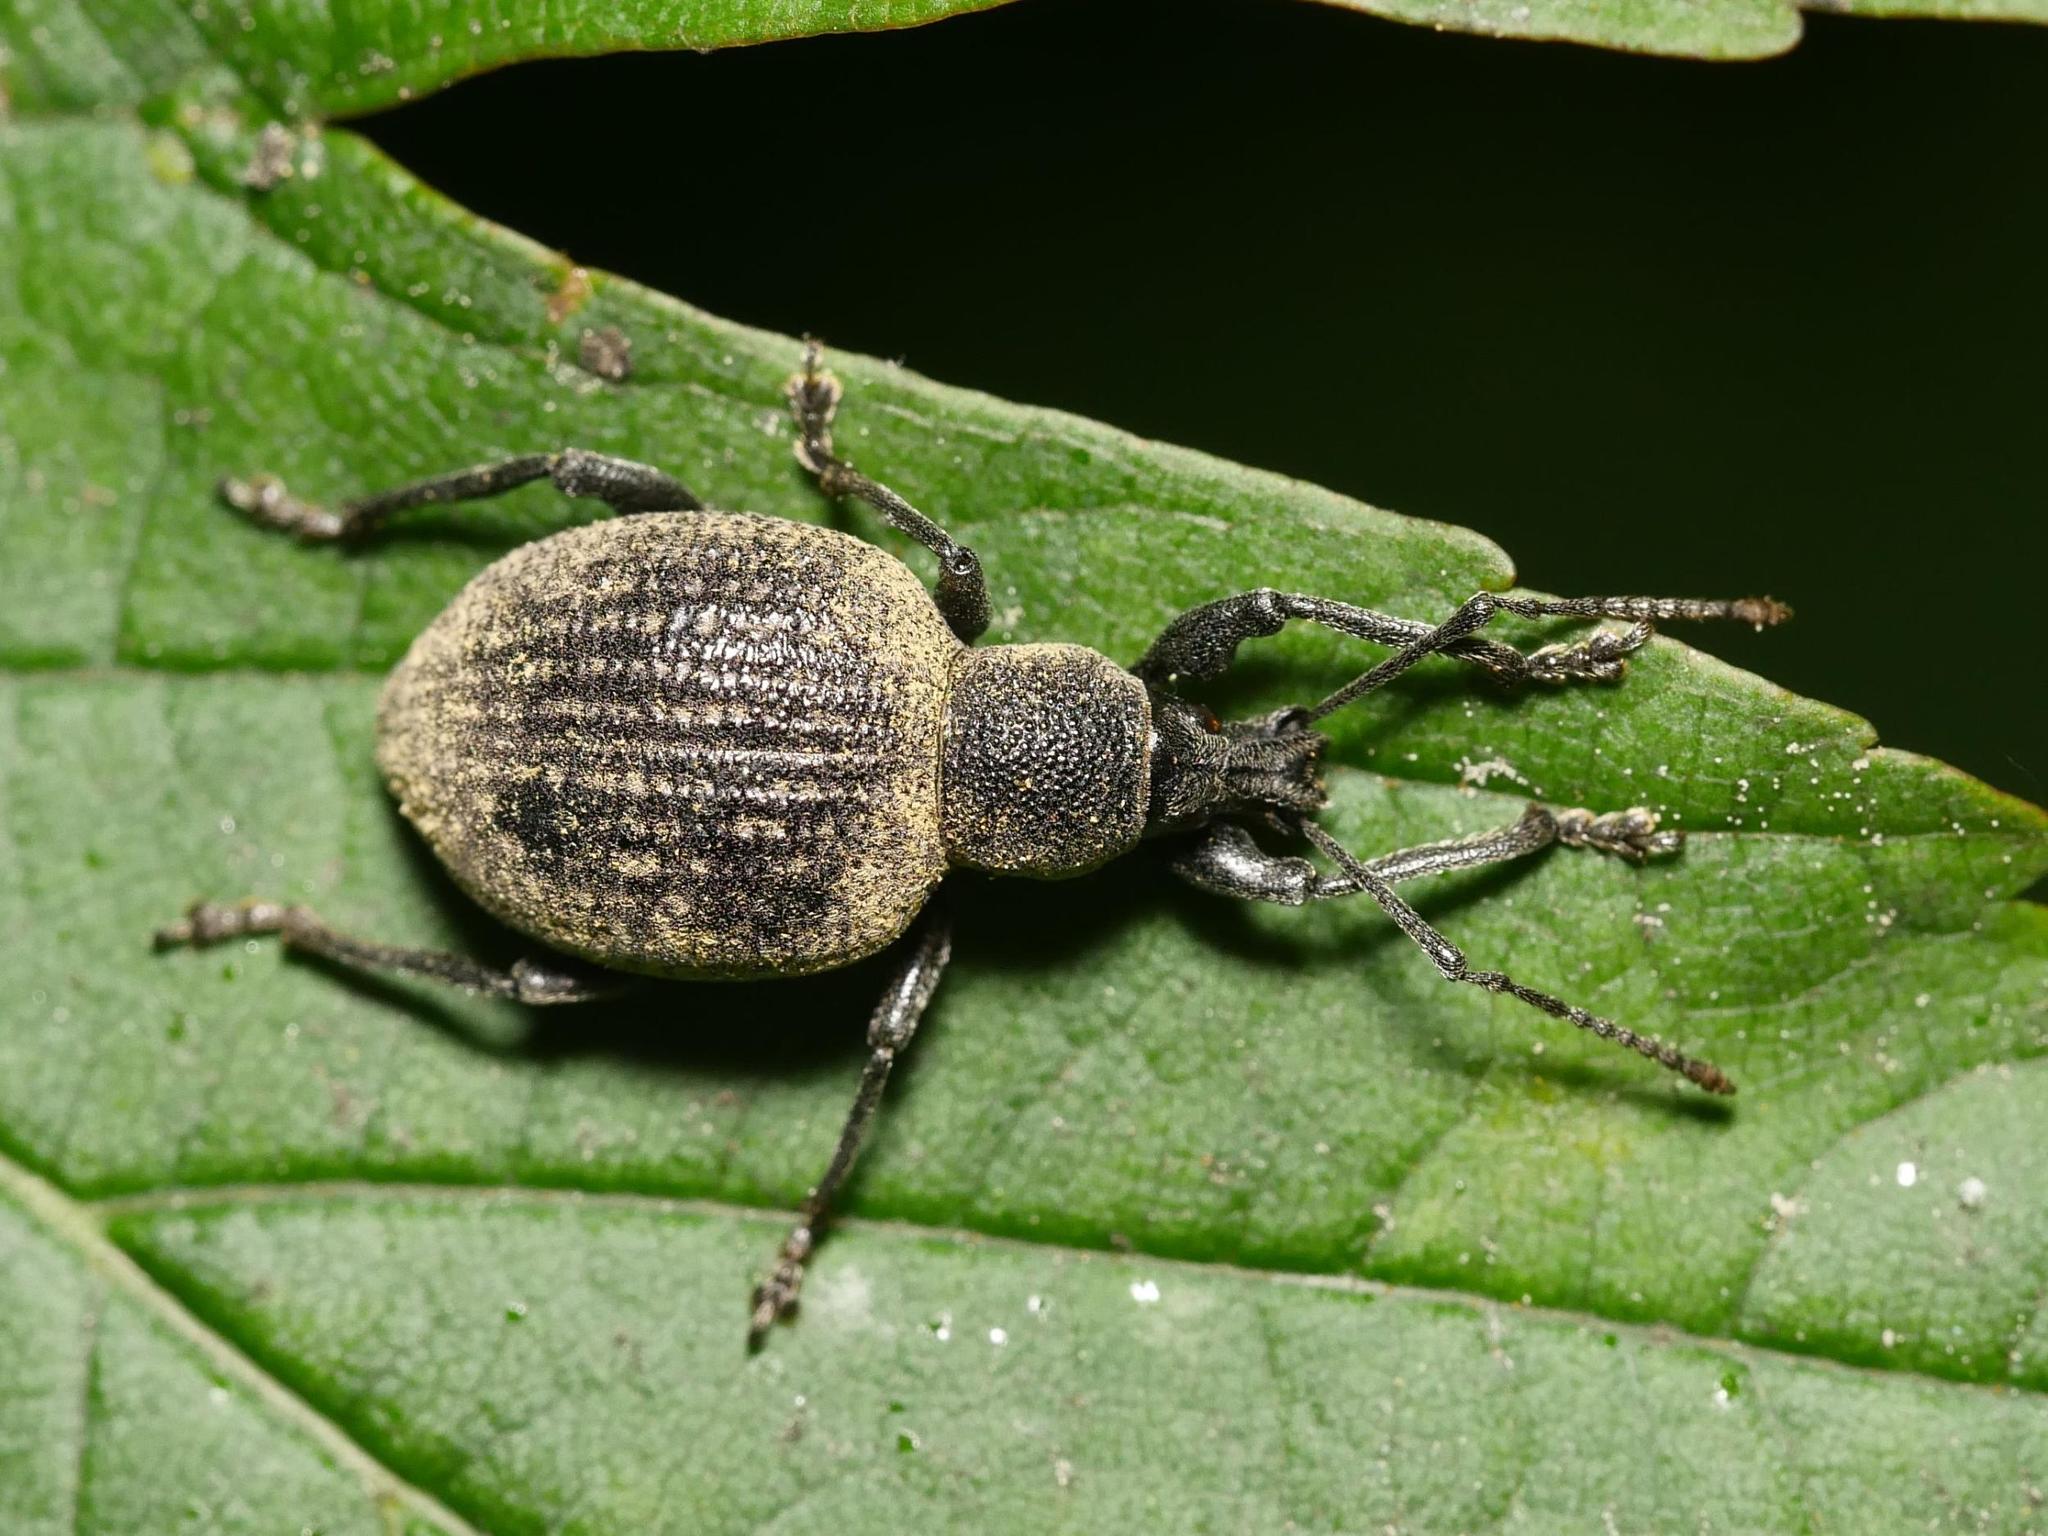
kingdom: Animalia
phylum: Arthropoda
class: Insecta
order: Coleoptera
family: Curculionidae
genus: Otiorhynchus
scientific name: Otiorhynchus armadillo
